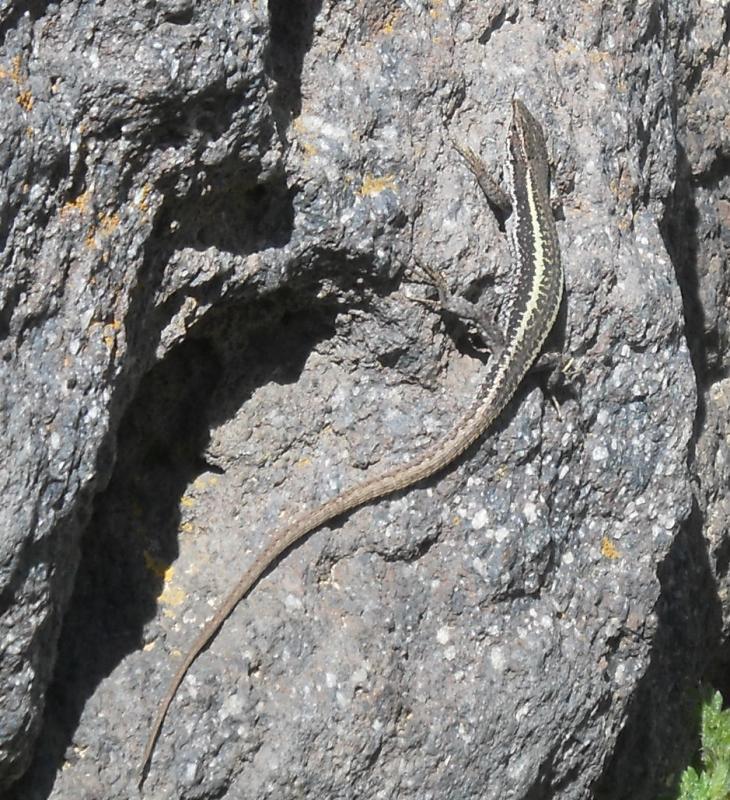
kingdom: Animalia
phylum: Chordata
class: Squamata
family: Lacertidae
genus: Darevskia
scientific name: Darevskia caucasica
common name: Caucasian llzard
